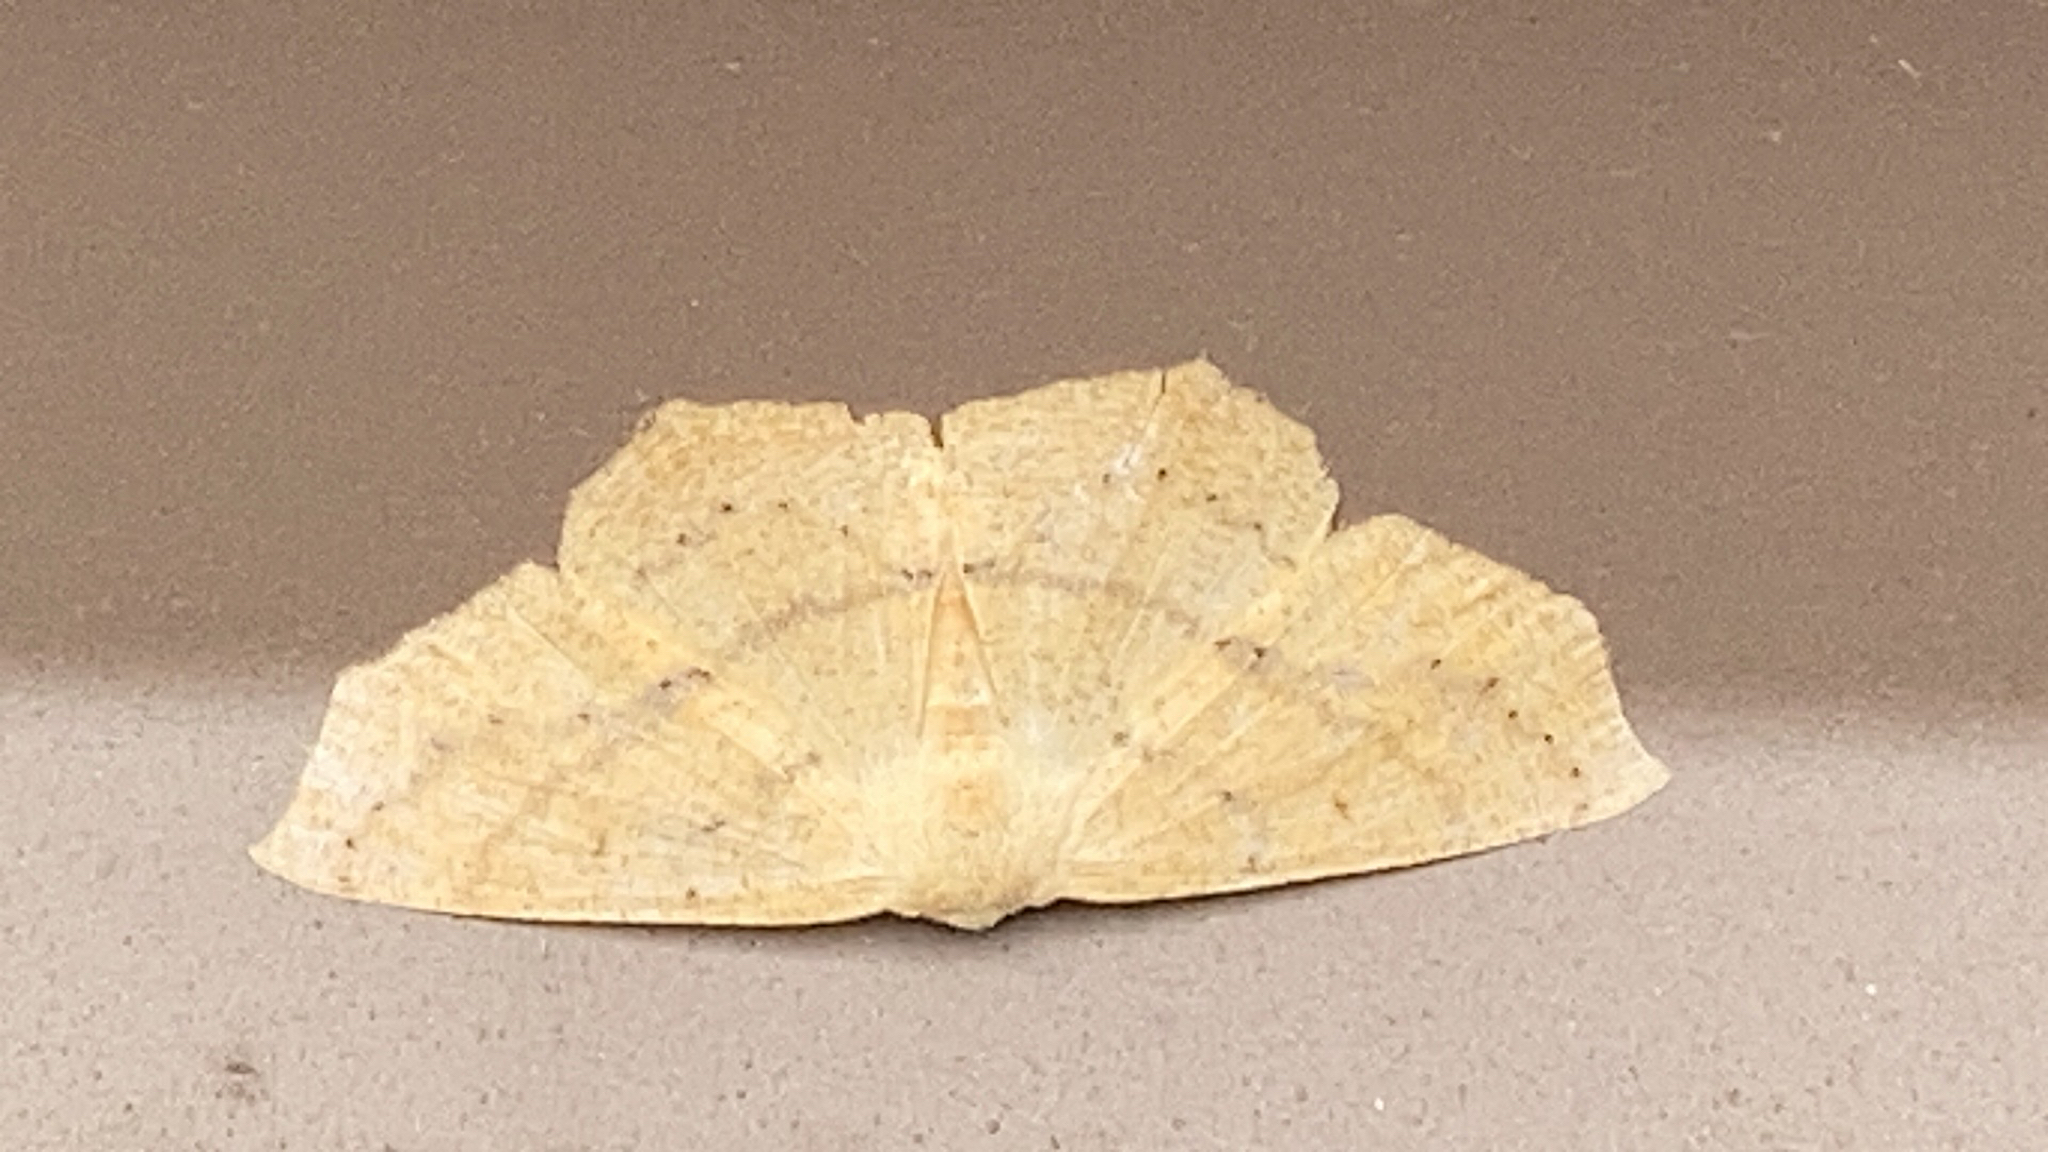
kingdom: Animalia
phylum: Arthropoda
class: Insecta
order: Lepidoptera
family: Geometridae
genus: Sabulodes
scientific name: Sabulodes aegrotata
